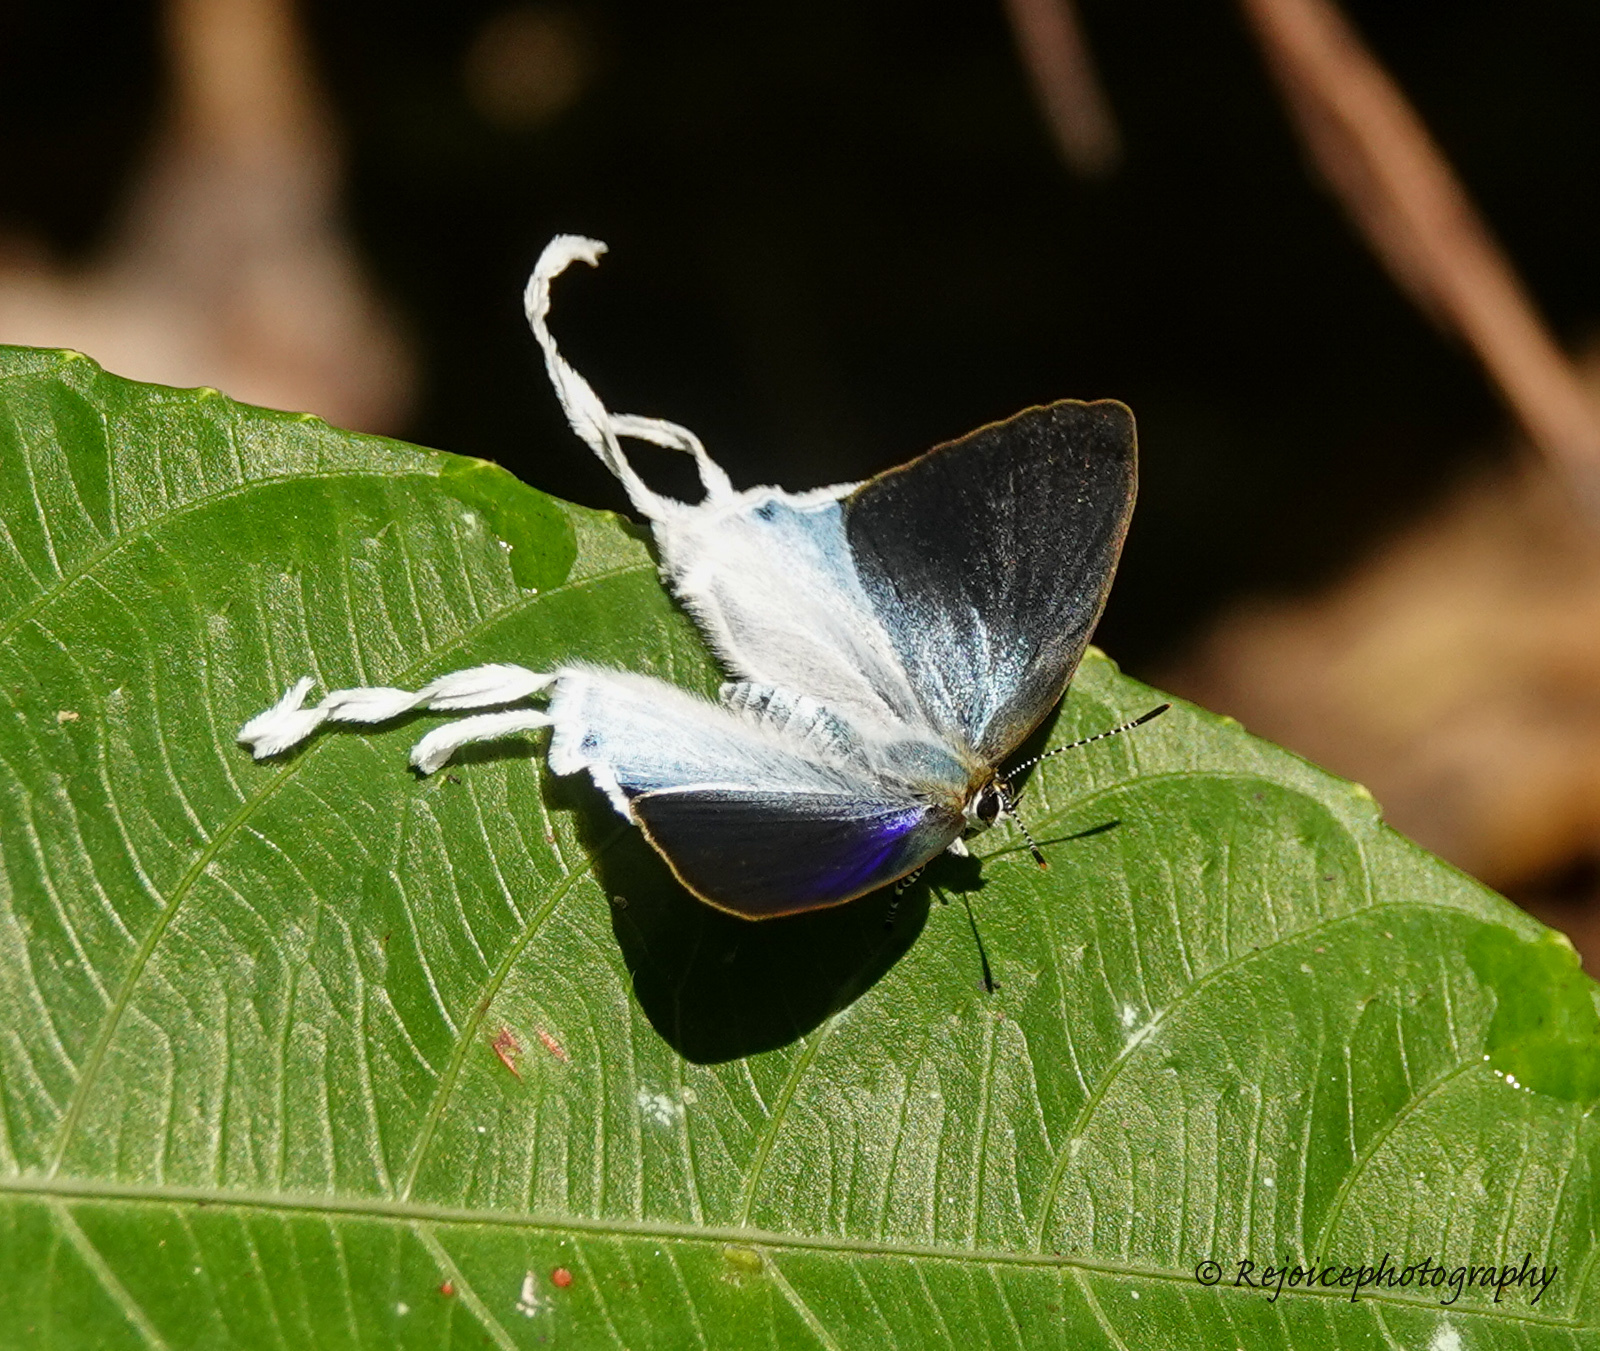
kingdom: Animalia
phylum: Arthropoda
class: Insecta
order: Lepidoptera
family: Lycaenidae
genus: Zeltus
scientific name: Zeltus amasa
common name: Fluffy tit
